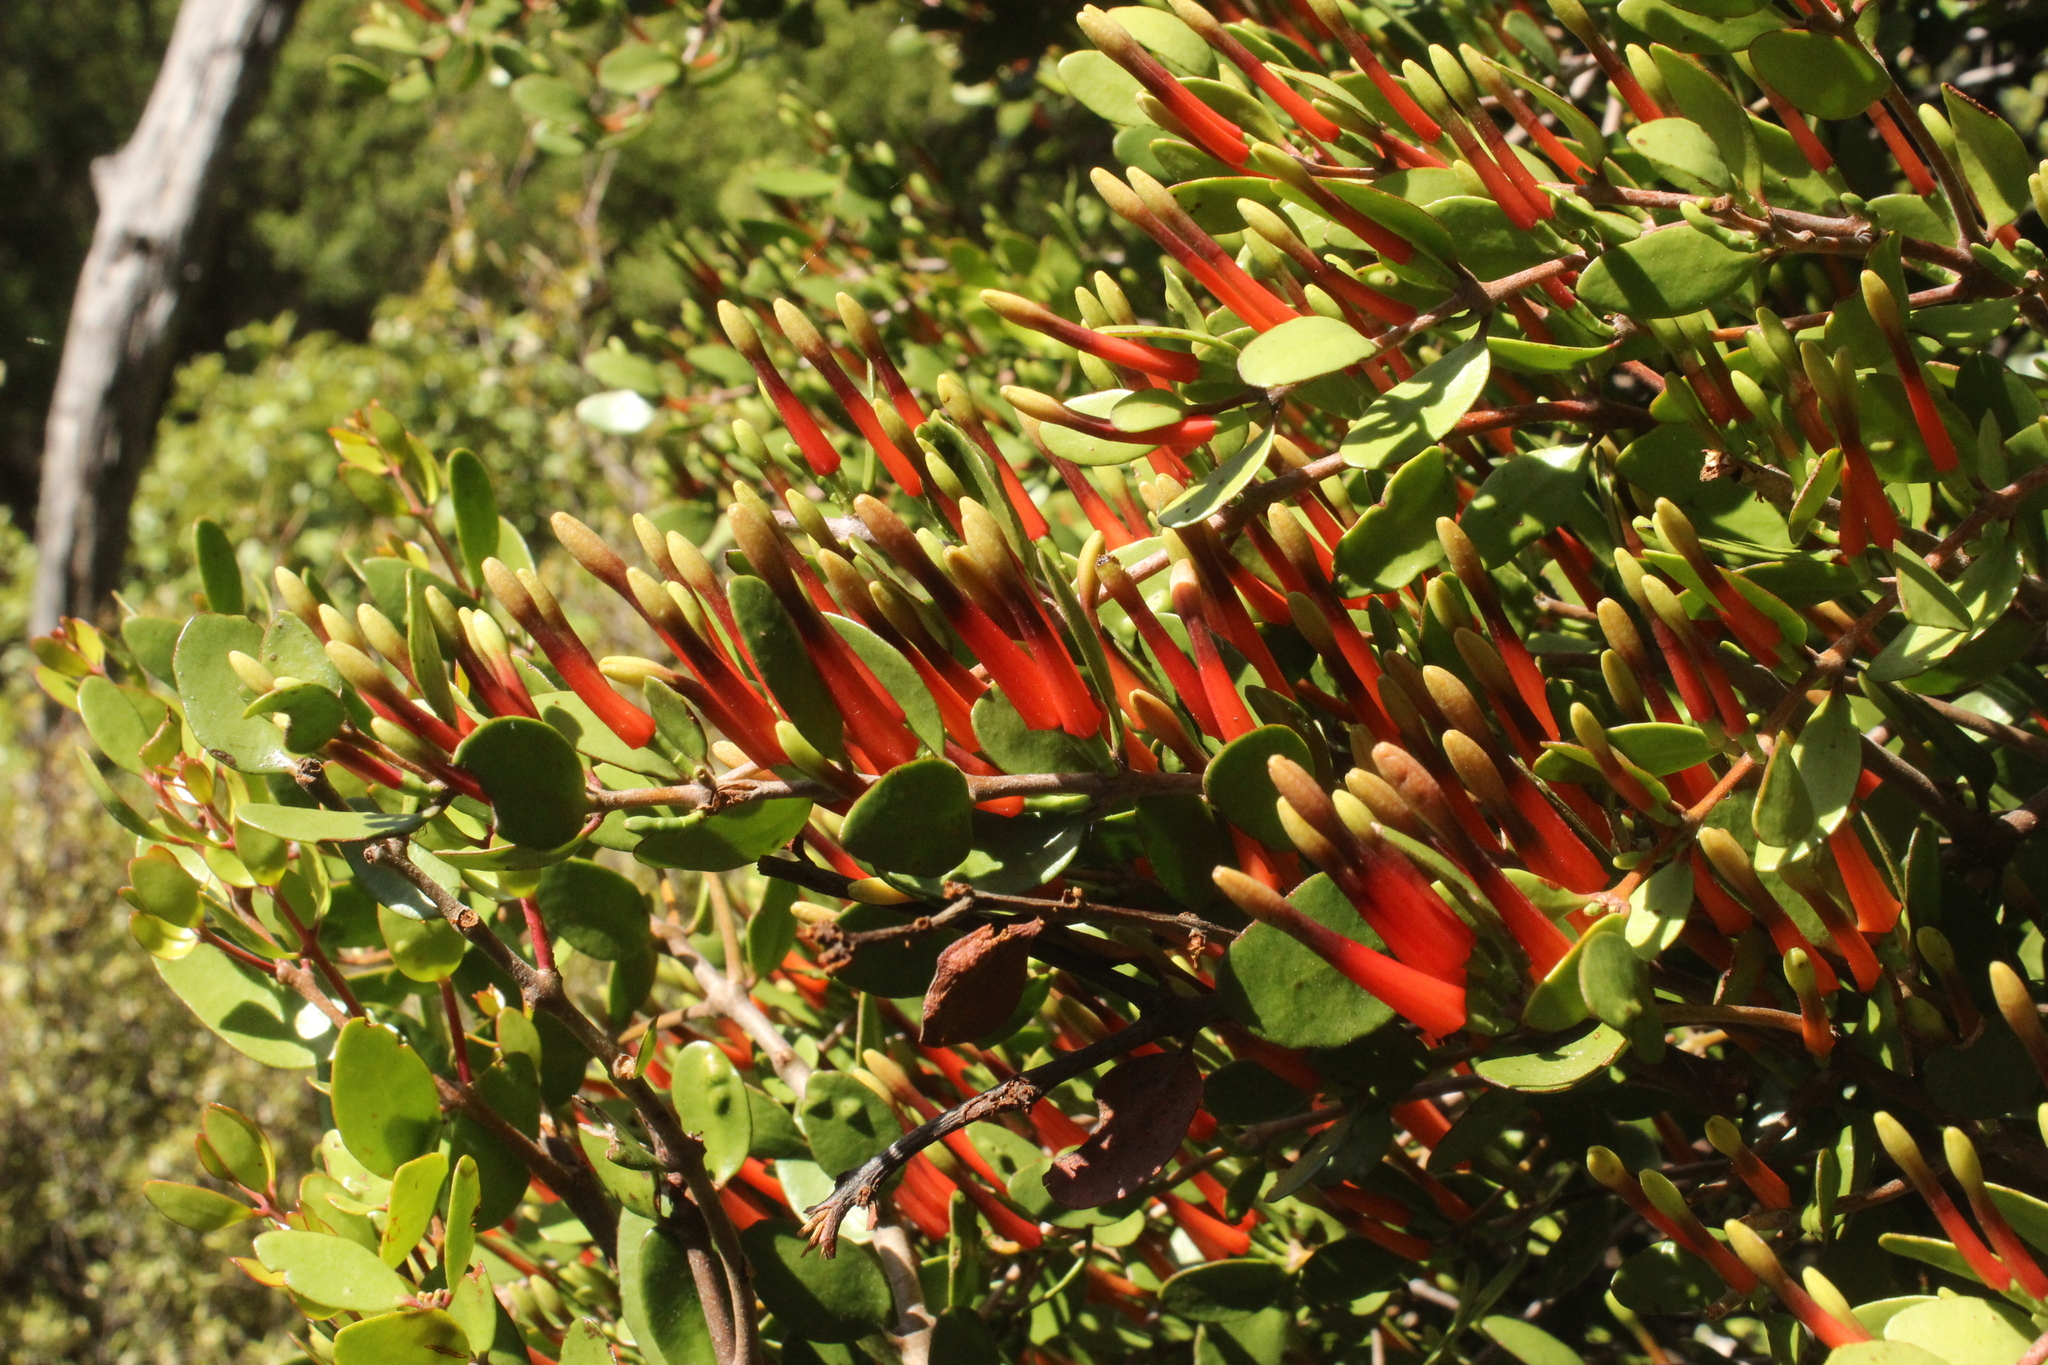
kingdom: Plantae
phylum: Tracheophyta
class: Magnoliopsida
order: Santalales
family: Loranthaceae
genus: Peraxilla
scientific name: Peraxilla tetrapetala
